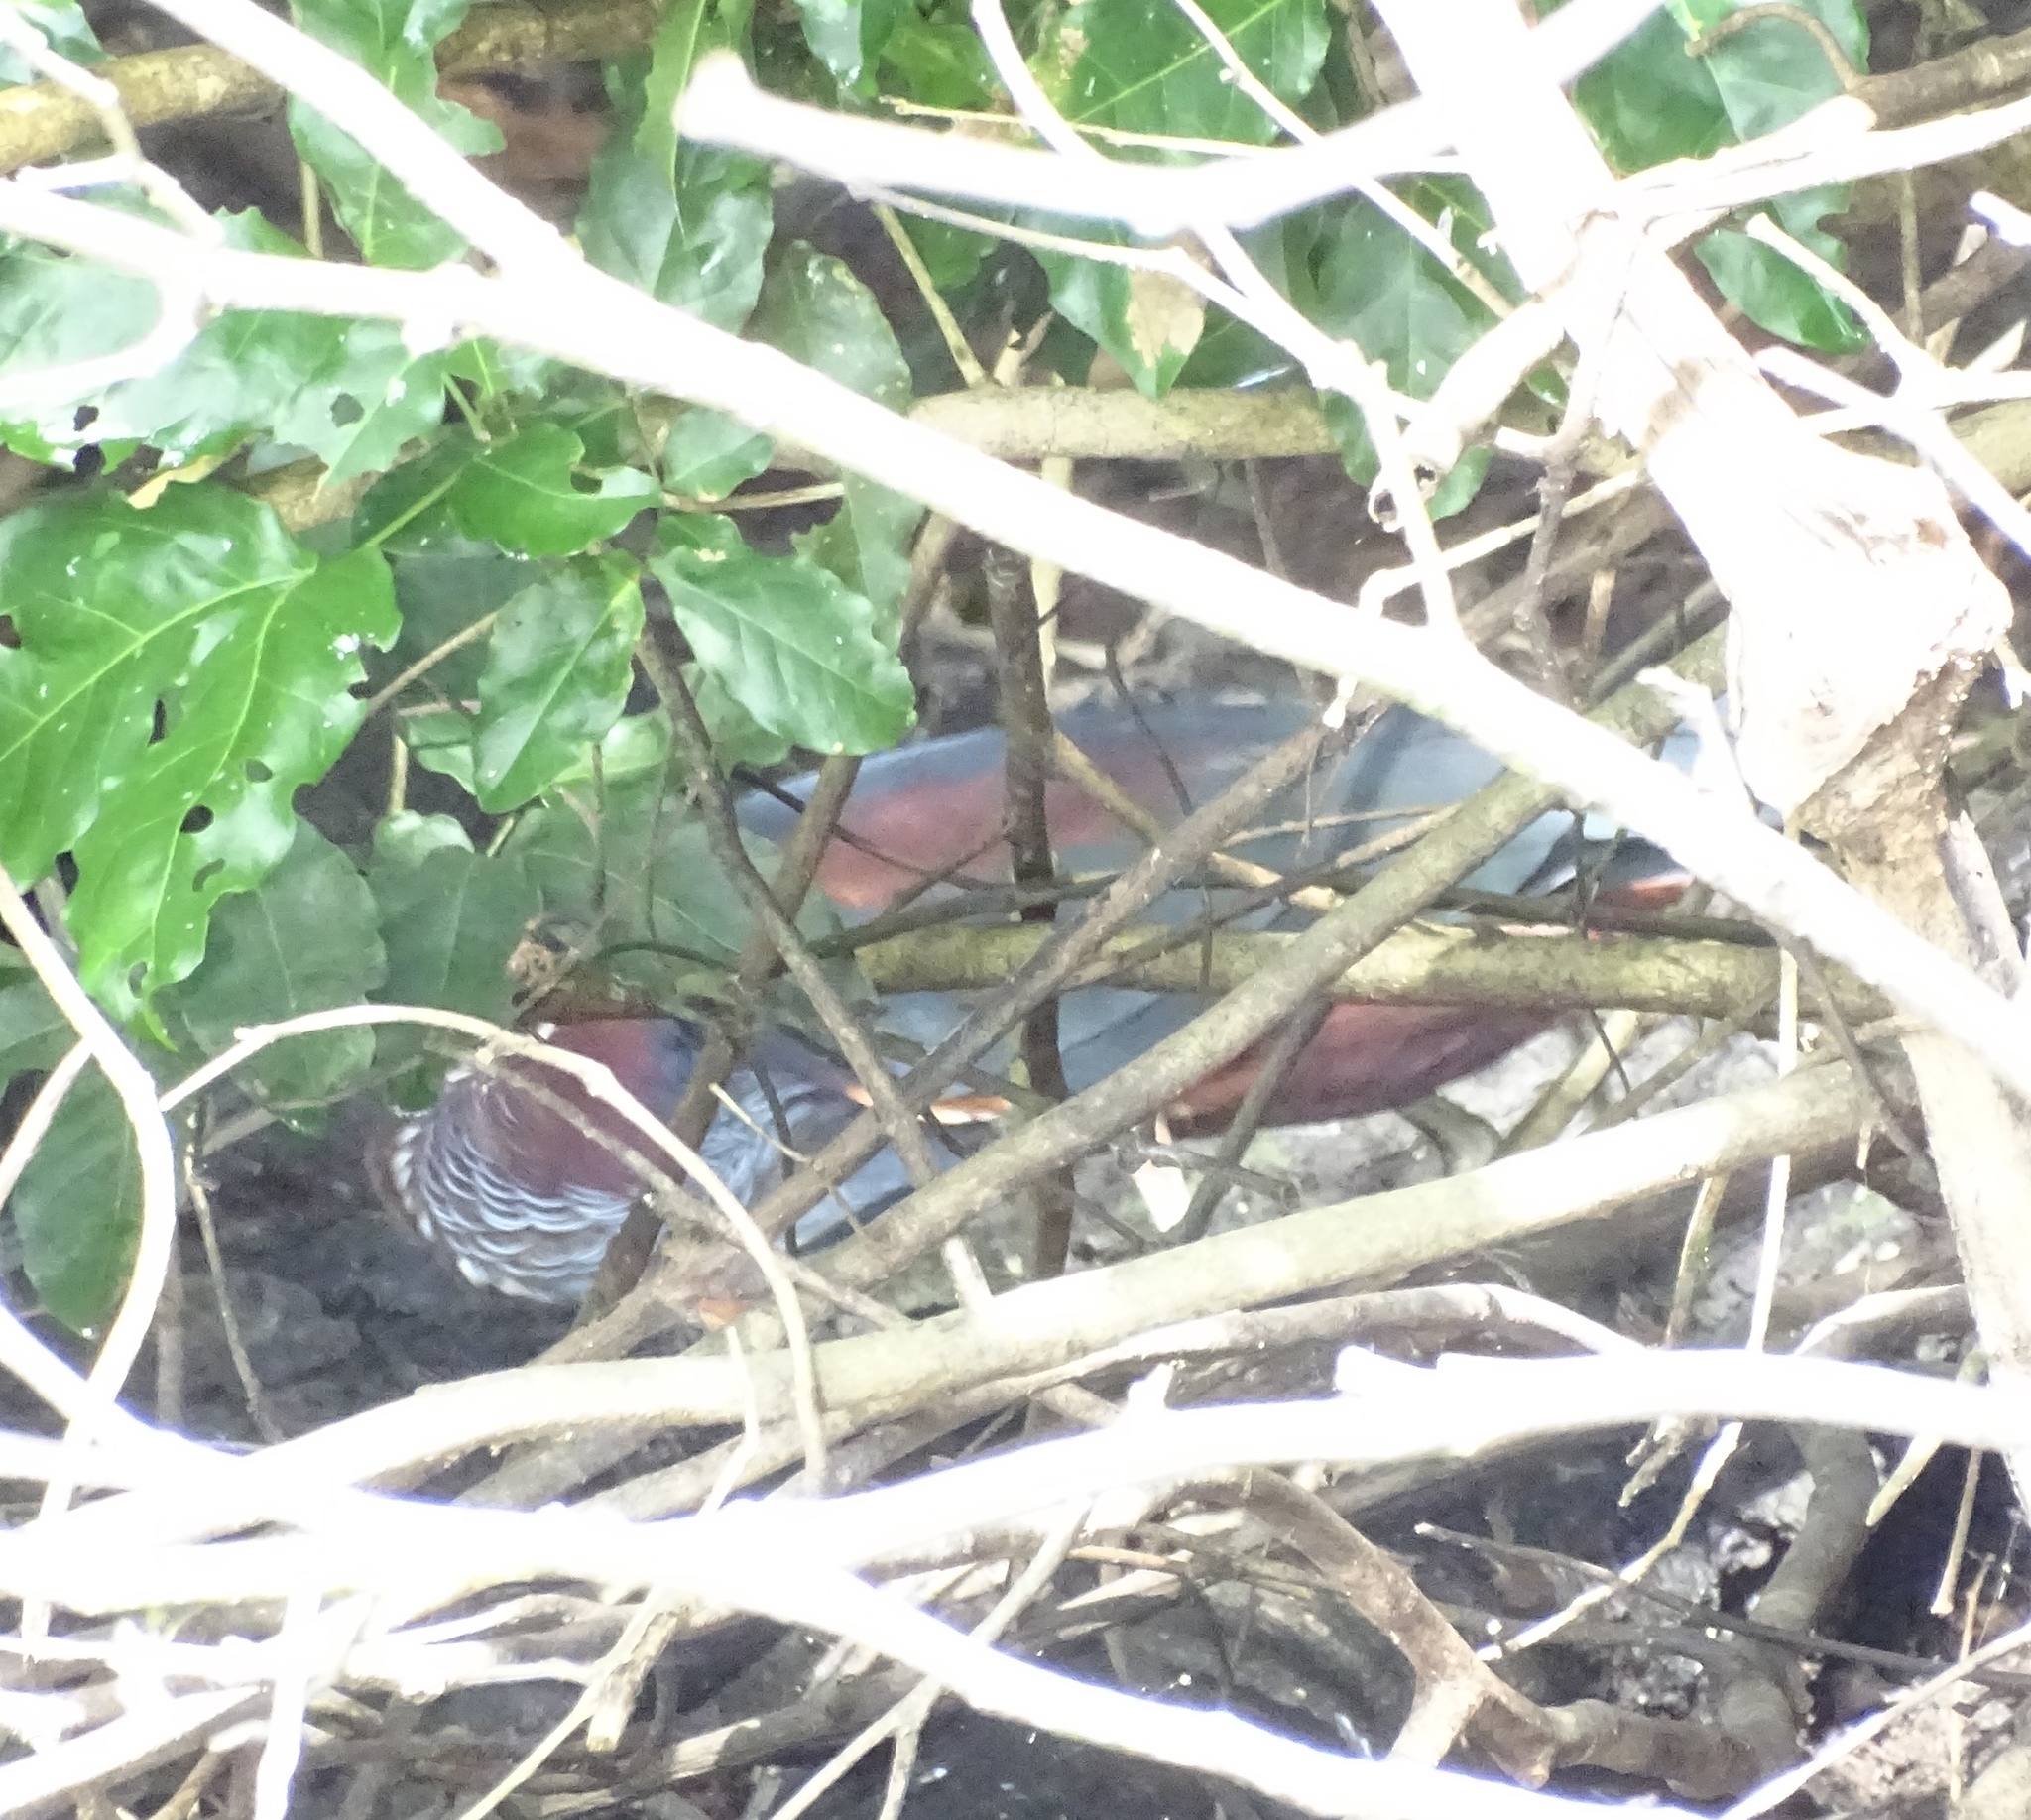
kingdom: Animalia
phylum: Chordata
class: Aves
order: Pelecaniformes
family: Ardeidae
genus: Agamia
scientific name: Agamia agami
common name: Agami heron
